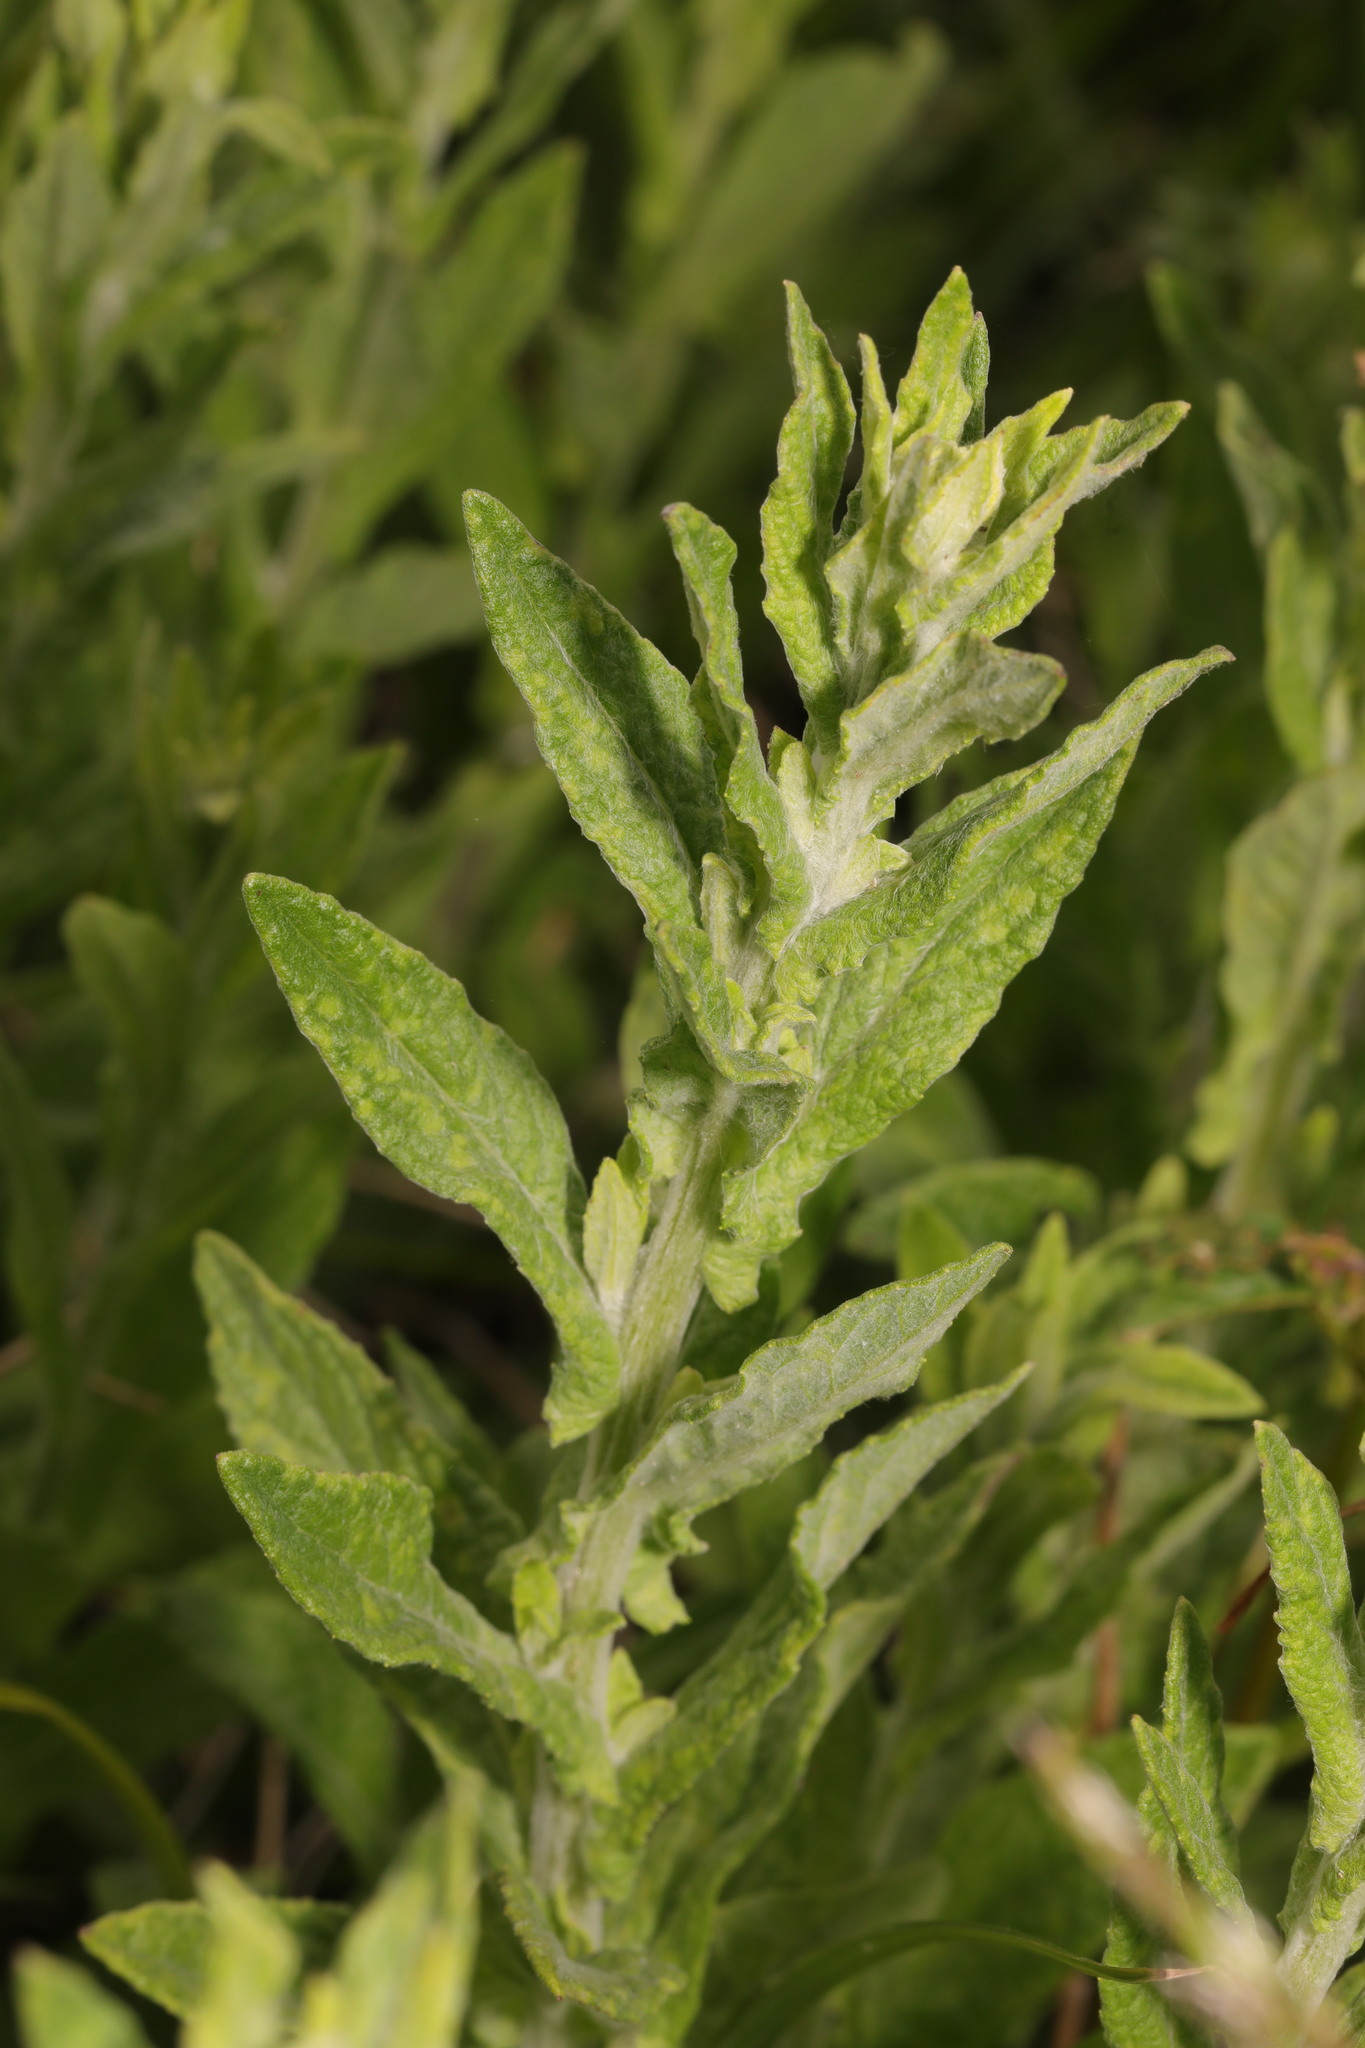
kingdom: Plantae
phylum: Tracheophyta
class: Magnoliopsida
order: Asterales
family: Asteraceae
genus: Pulicaria
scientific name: Pulicaria dysenterica
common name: Common fleabane
